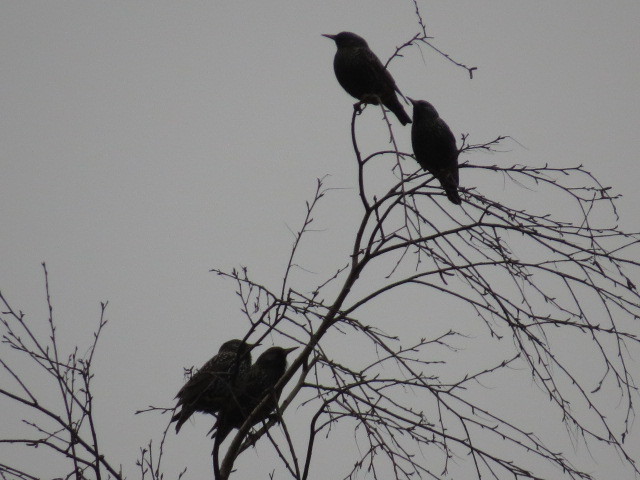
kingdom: Animalia
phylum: Chordata
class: Aves
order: Passeriformes
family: Sturnidae
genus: Sturnus
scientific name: Sturnus vulgaris
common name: Common starling
